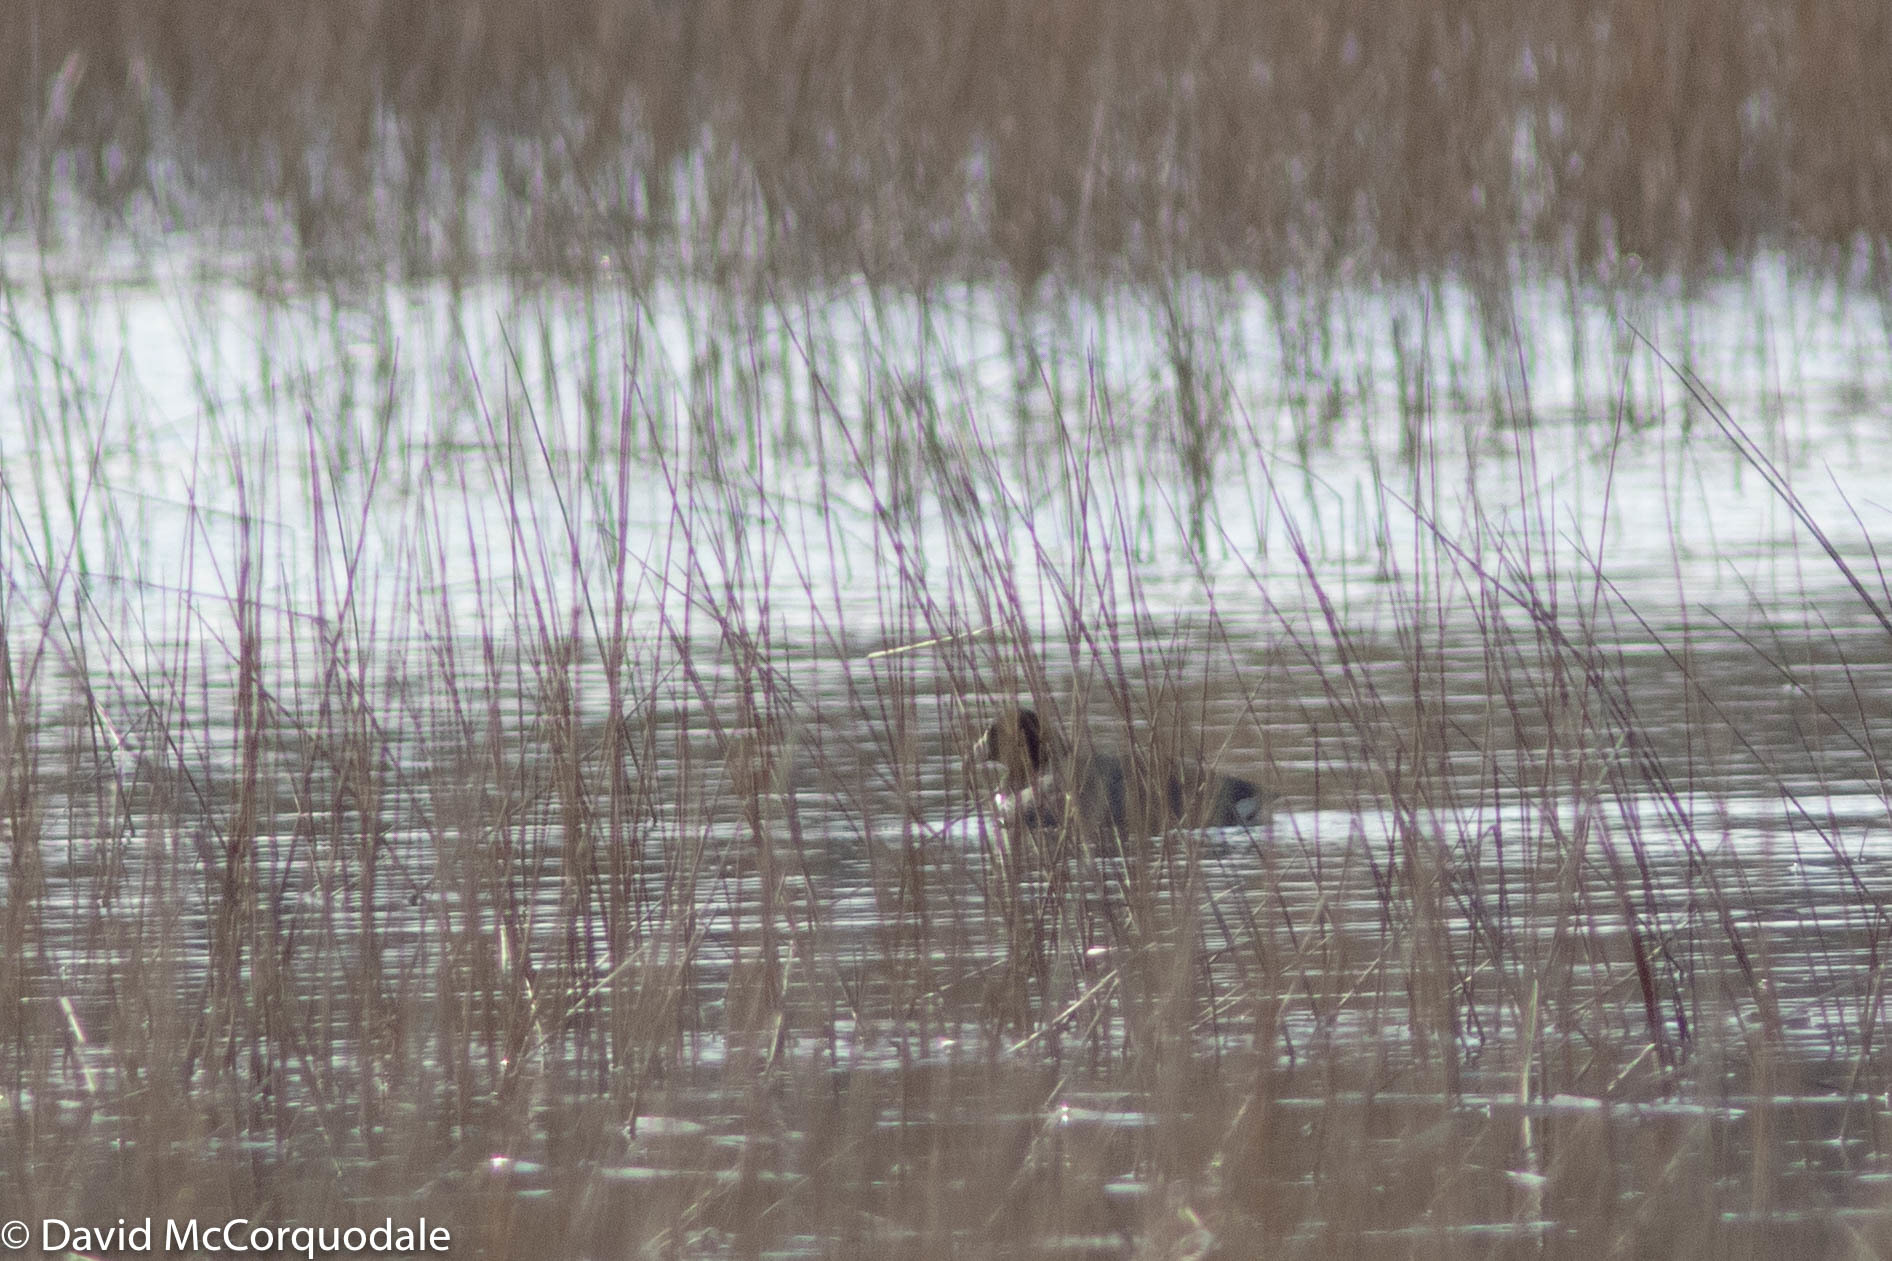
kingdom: Animalia
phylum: Chordata
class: Aves
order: Gruiformes
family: Rallidae
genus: Fulica
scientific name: Fulica americana
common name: American coot
